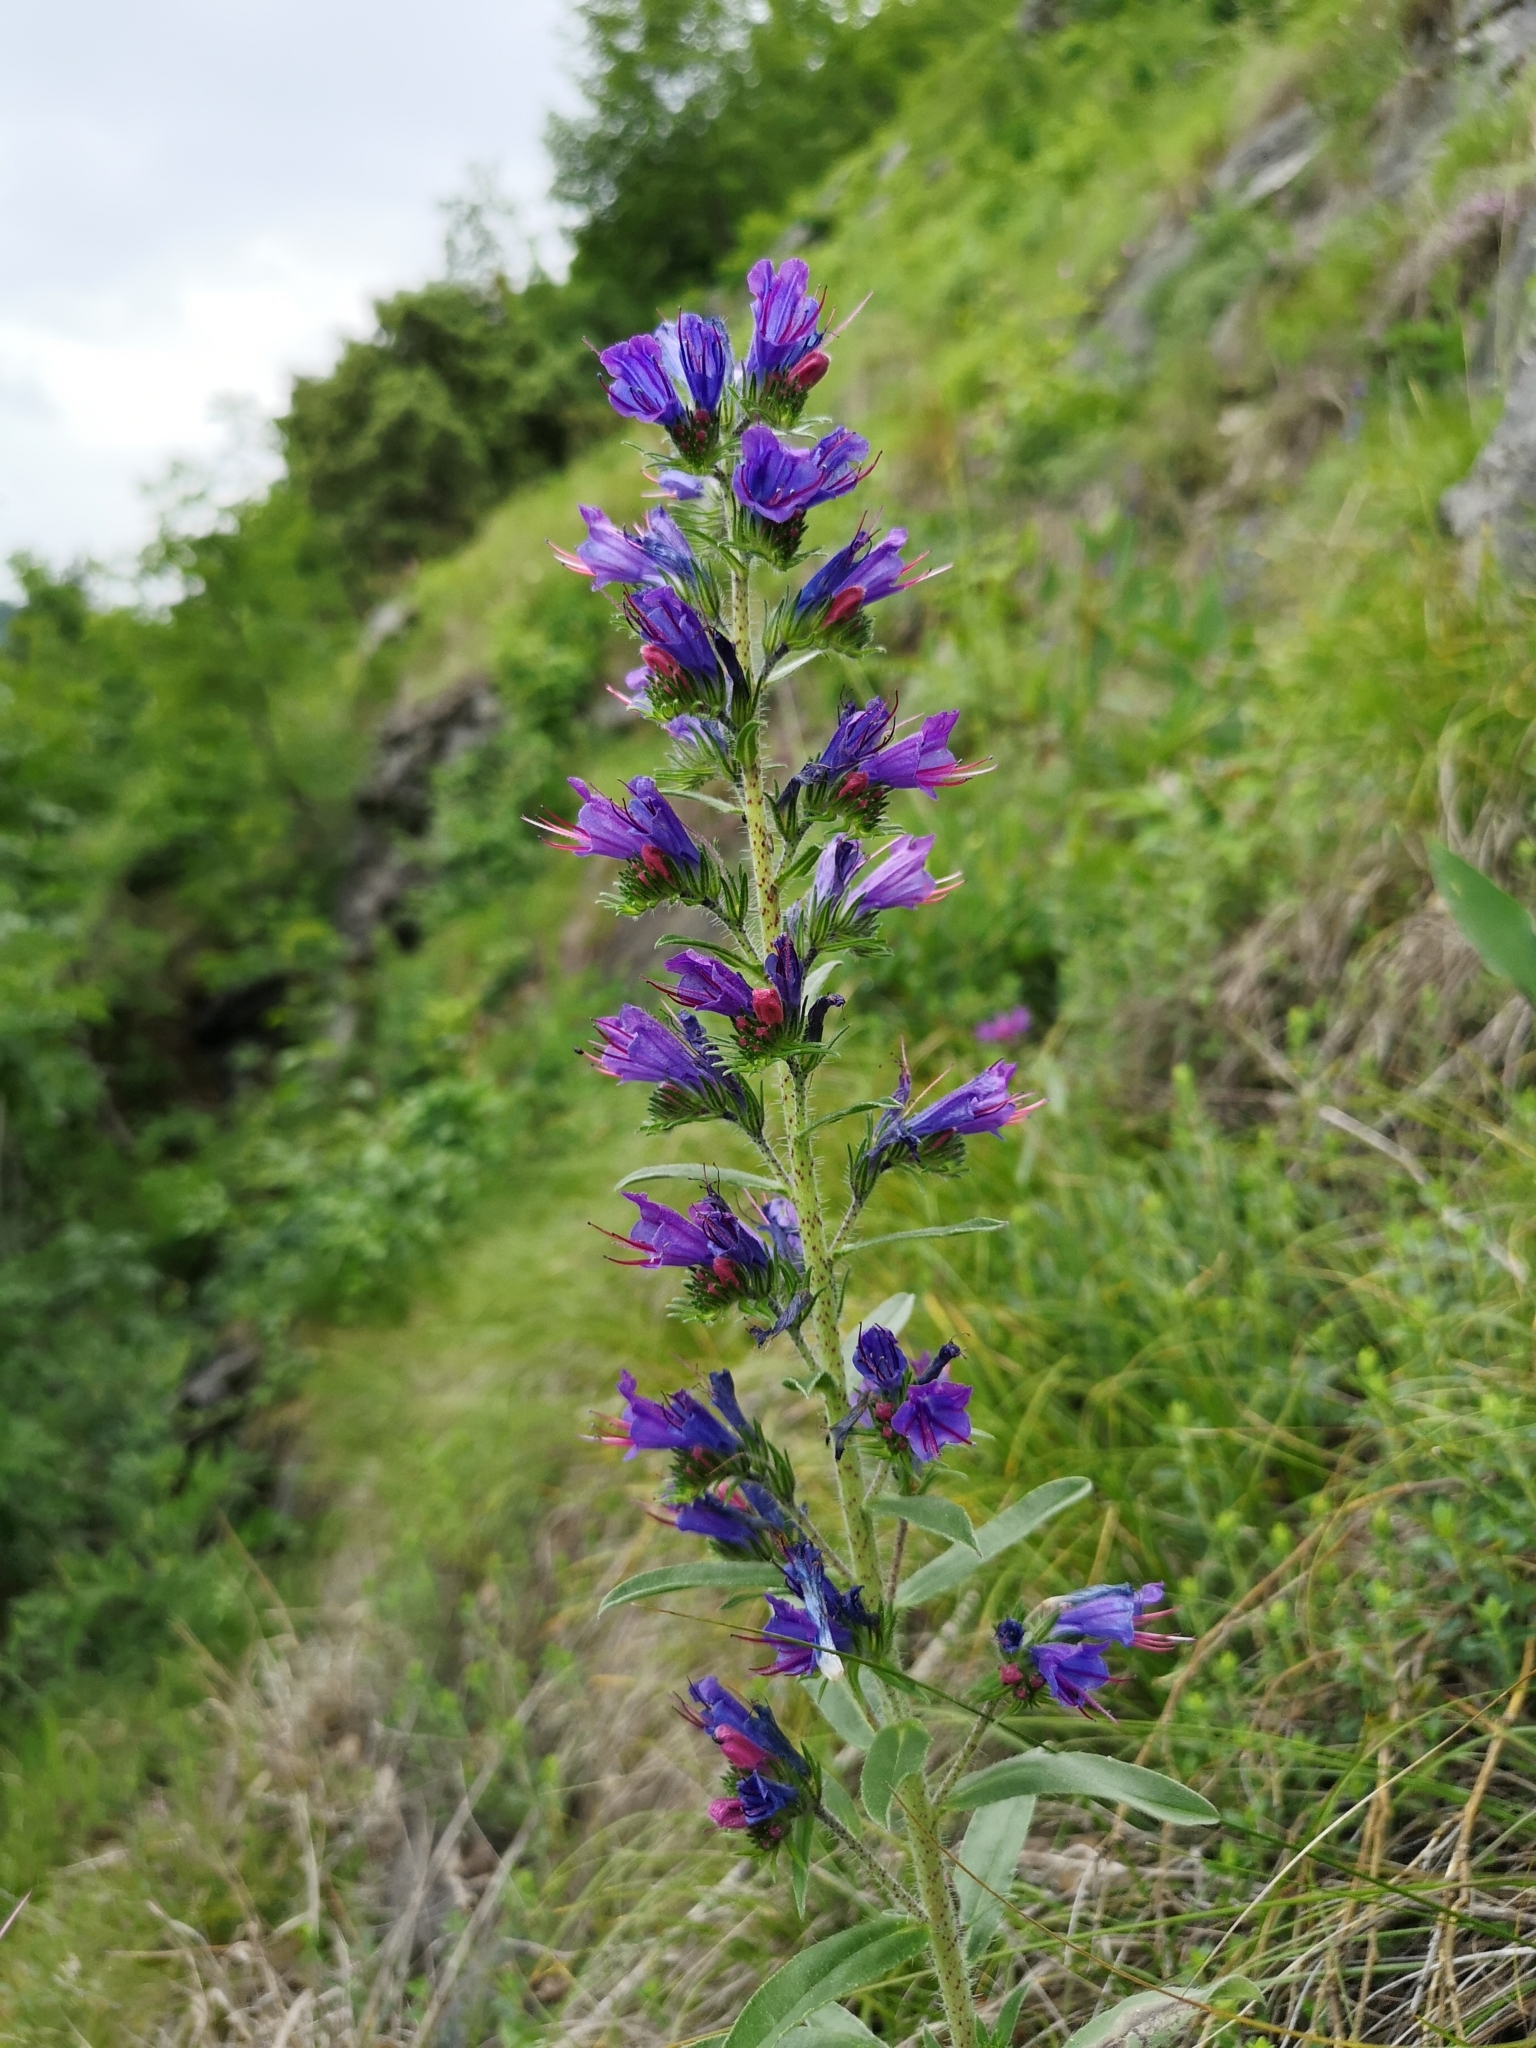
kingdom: Plantae
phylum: Tracheophyta
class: Magnoliopsida
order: Boraginales
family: Boraginaceae
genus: Echium
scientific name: Echium vulgare
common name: Common viper's bugloss
